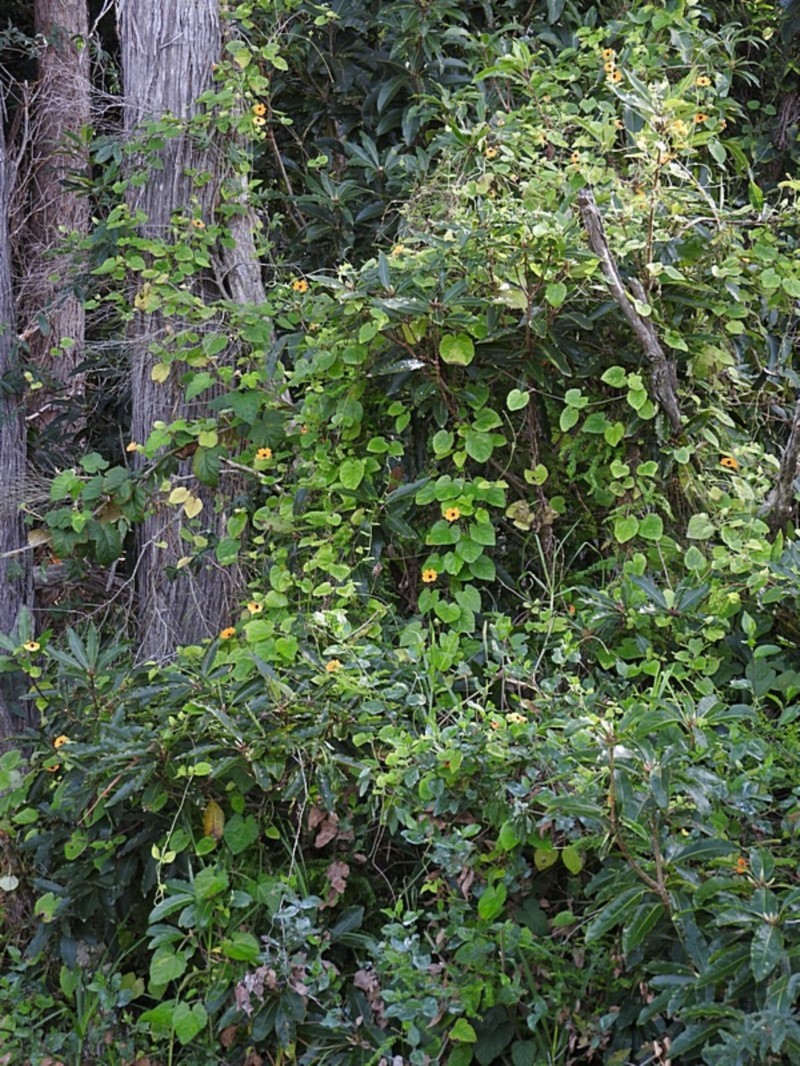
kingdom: Plantae
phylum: Tracheophyta
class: Magnoliopsida
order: Lamiales
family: Acanthaceae
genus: Thunbergia
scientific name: Thunbergia alata
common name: Blackeyed susan vine
